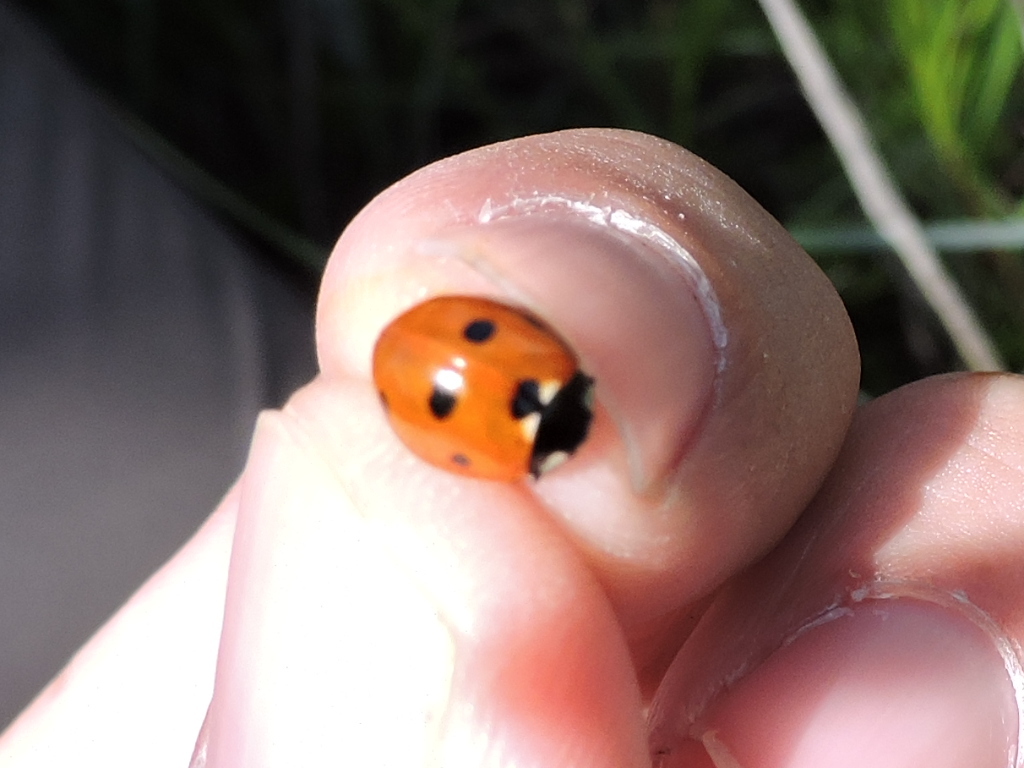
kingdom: Animalia
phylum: Arthropoda
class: Insecta
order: Coleoptera
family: Coccinellidae
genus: Coccinella
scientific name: Coccinella septempunctata
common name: Sevenspotted lady beetle
